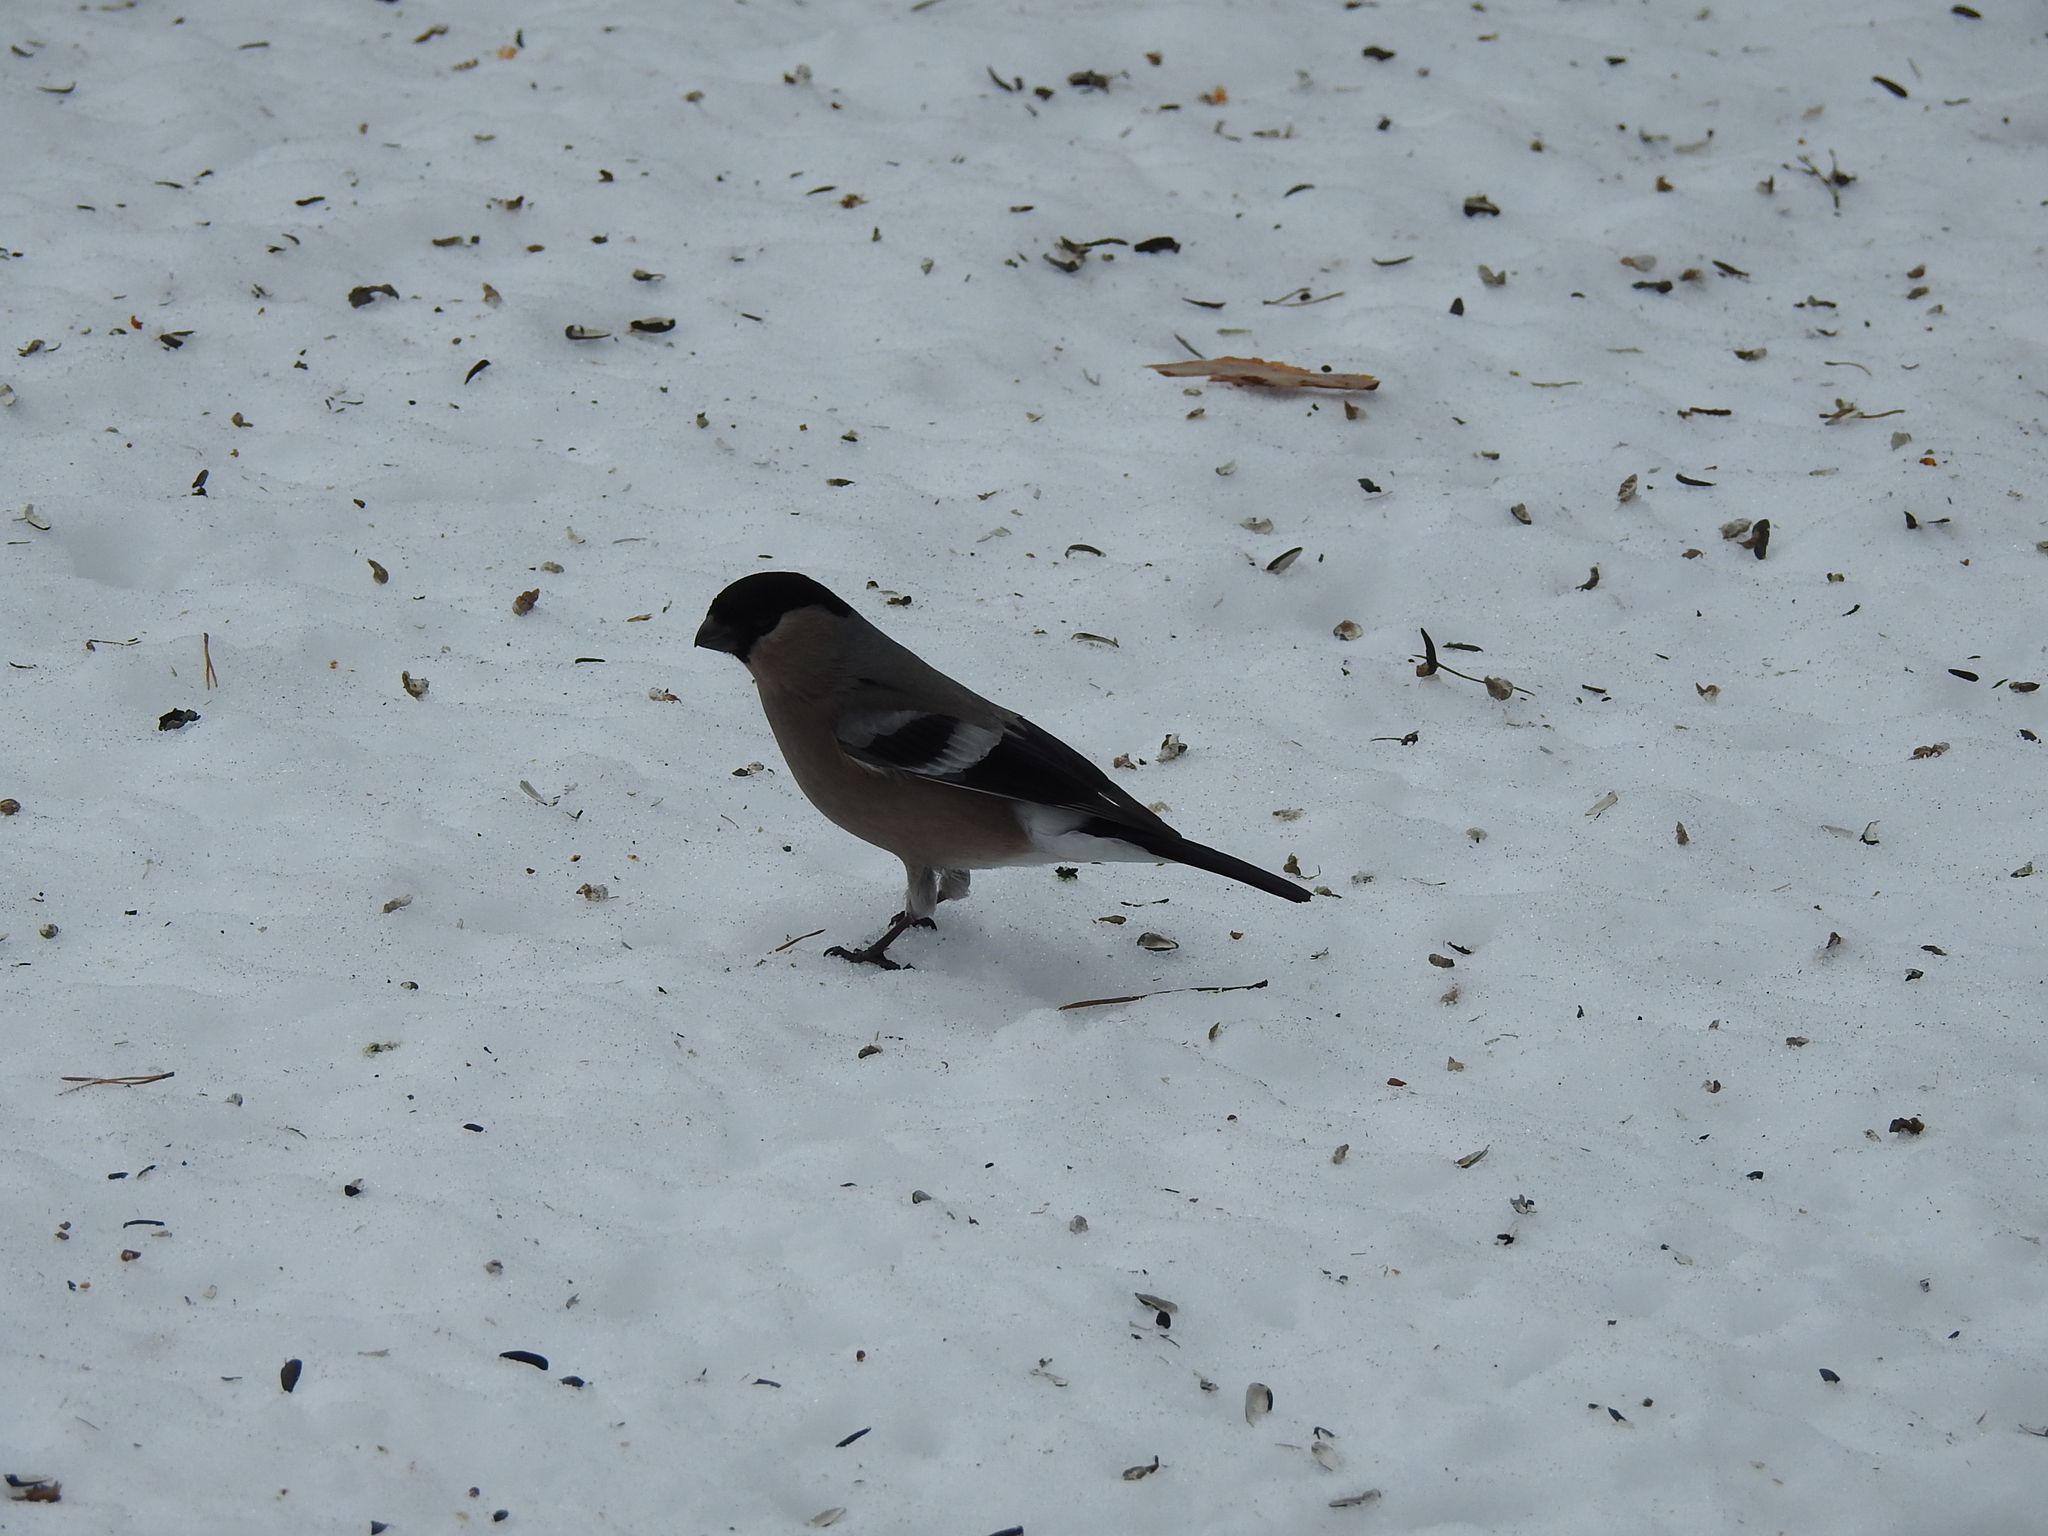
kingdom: Animalia
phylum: Chordata
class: Aves
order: Passeriformes
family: Fringillidae
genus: Pyrrhula
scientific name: Pyrrhula pyrrhula
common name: Eurasian bullfinch
